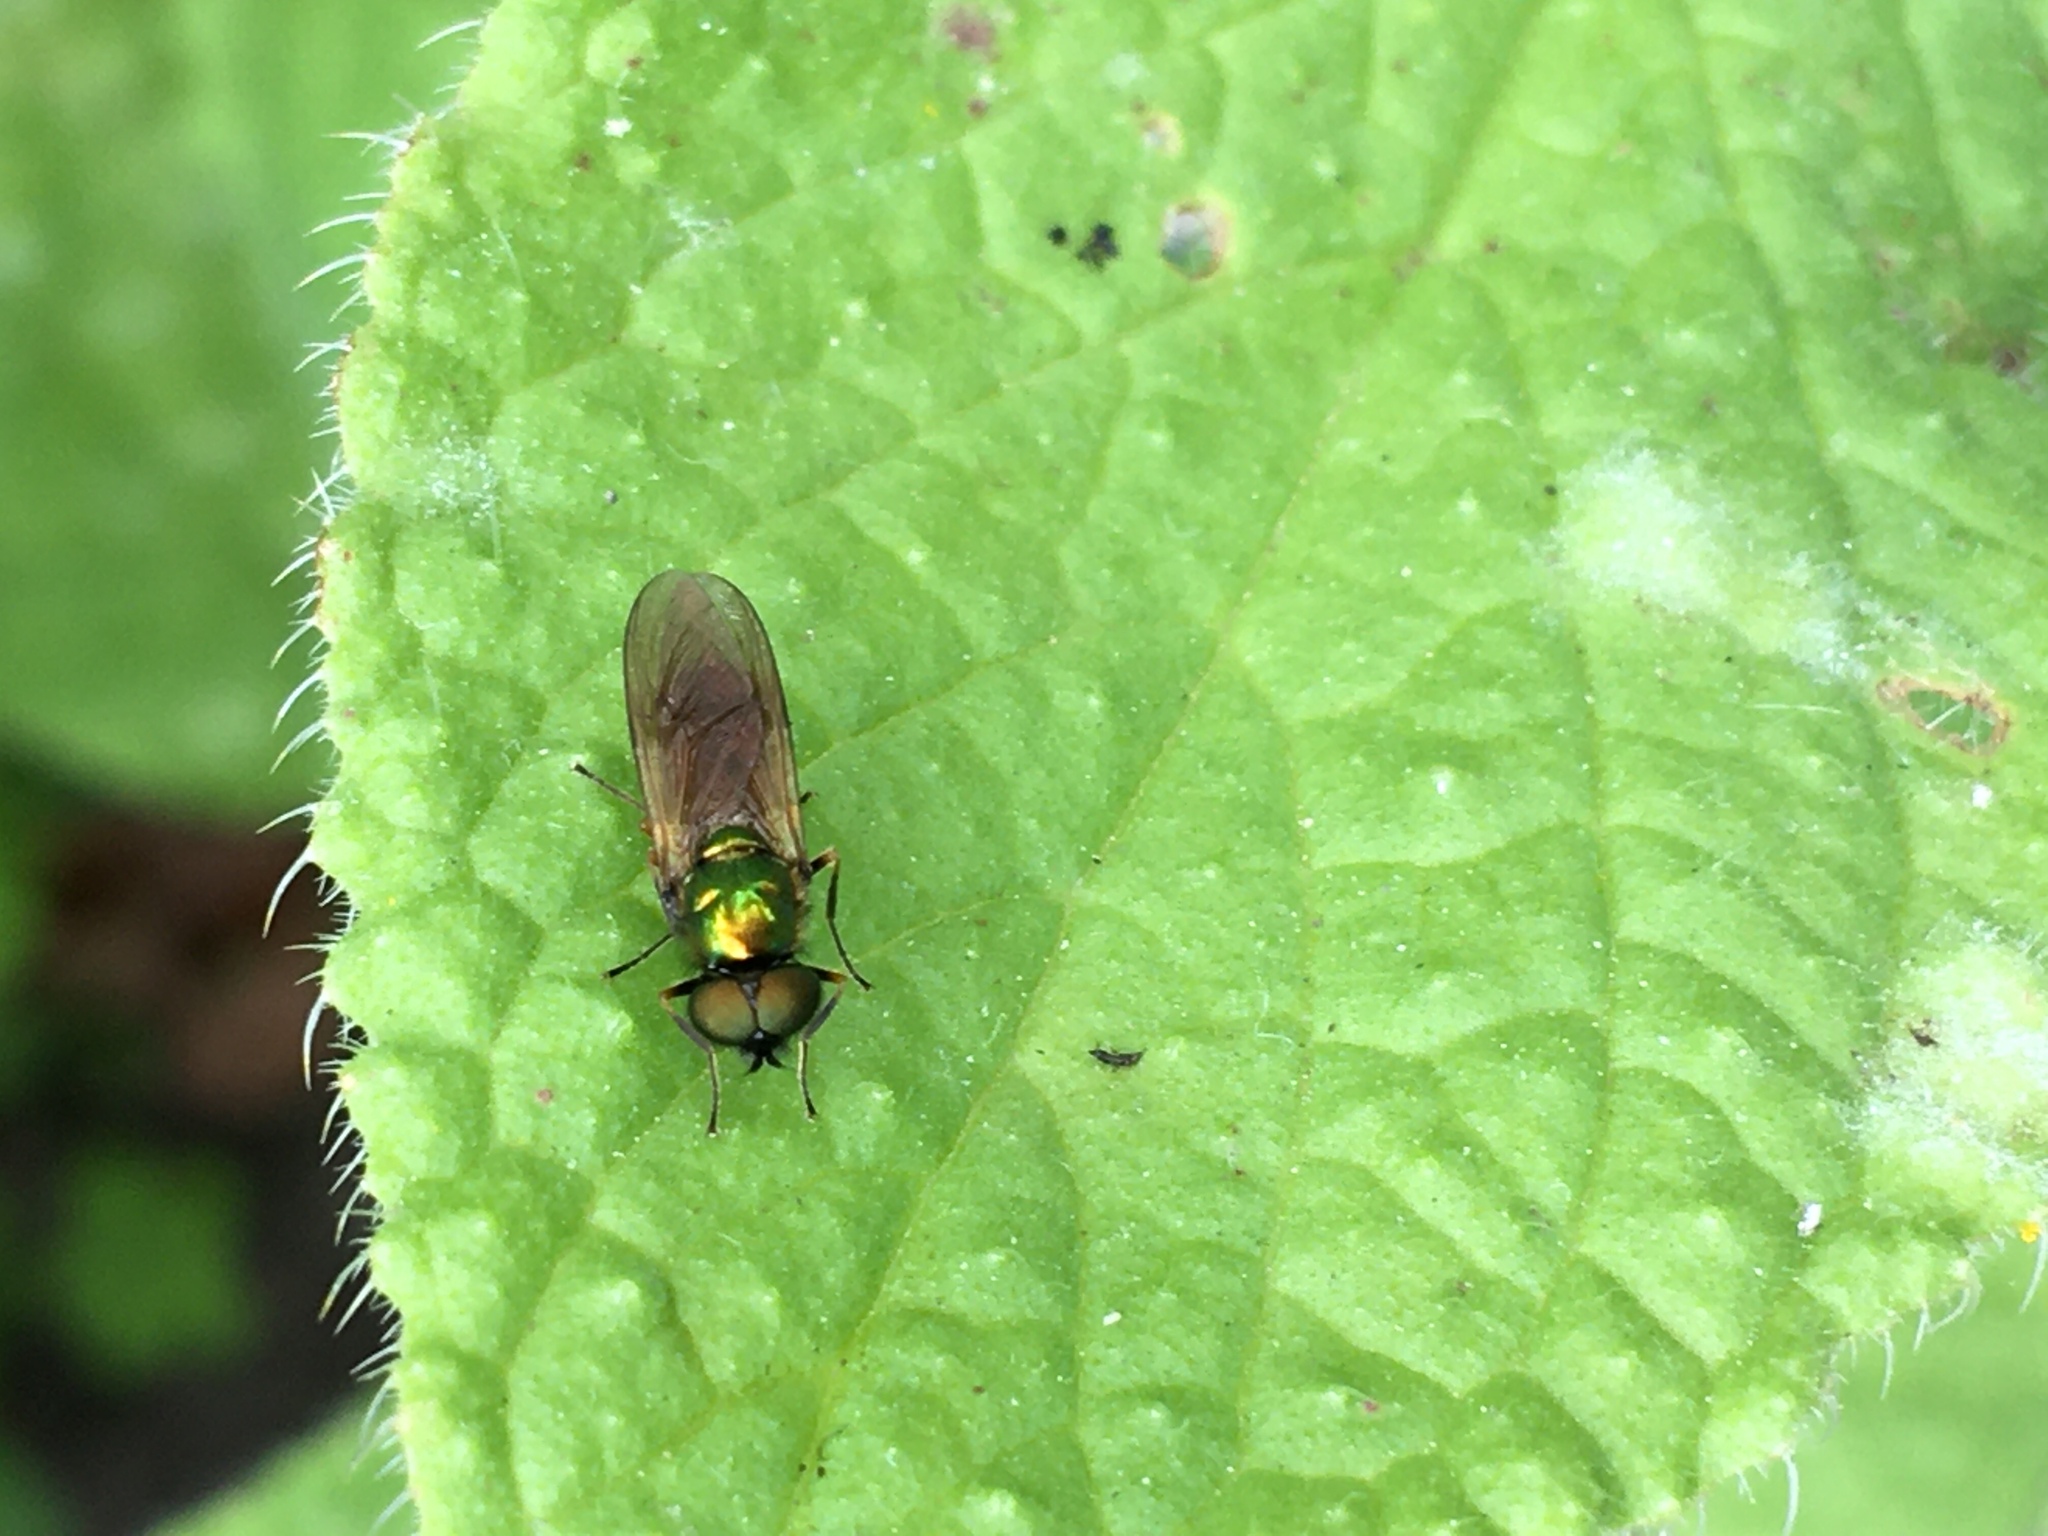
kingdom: Animalia
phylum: Arthropoda
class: Insecta
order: Diptera
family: Stratiomyidae
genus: Chloromyia
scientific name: Chloromyia formosa
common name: Soldier fly
